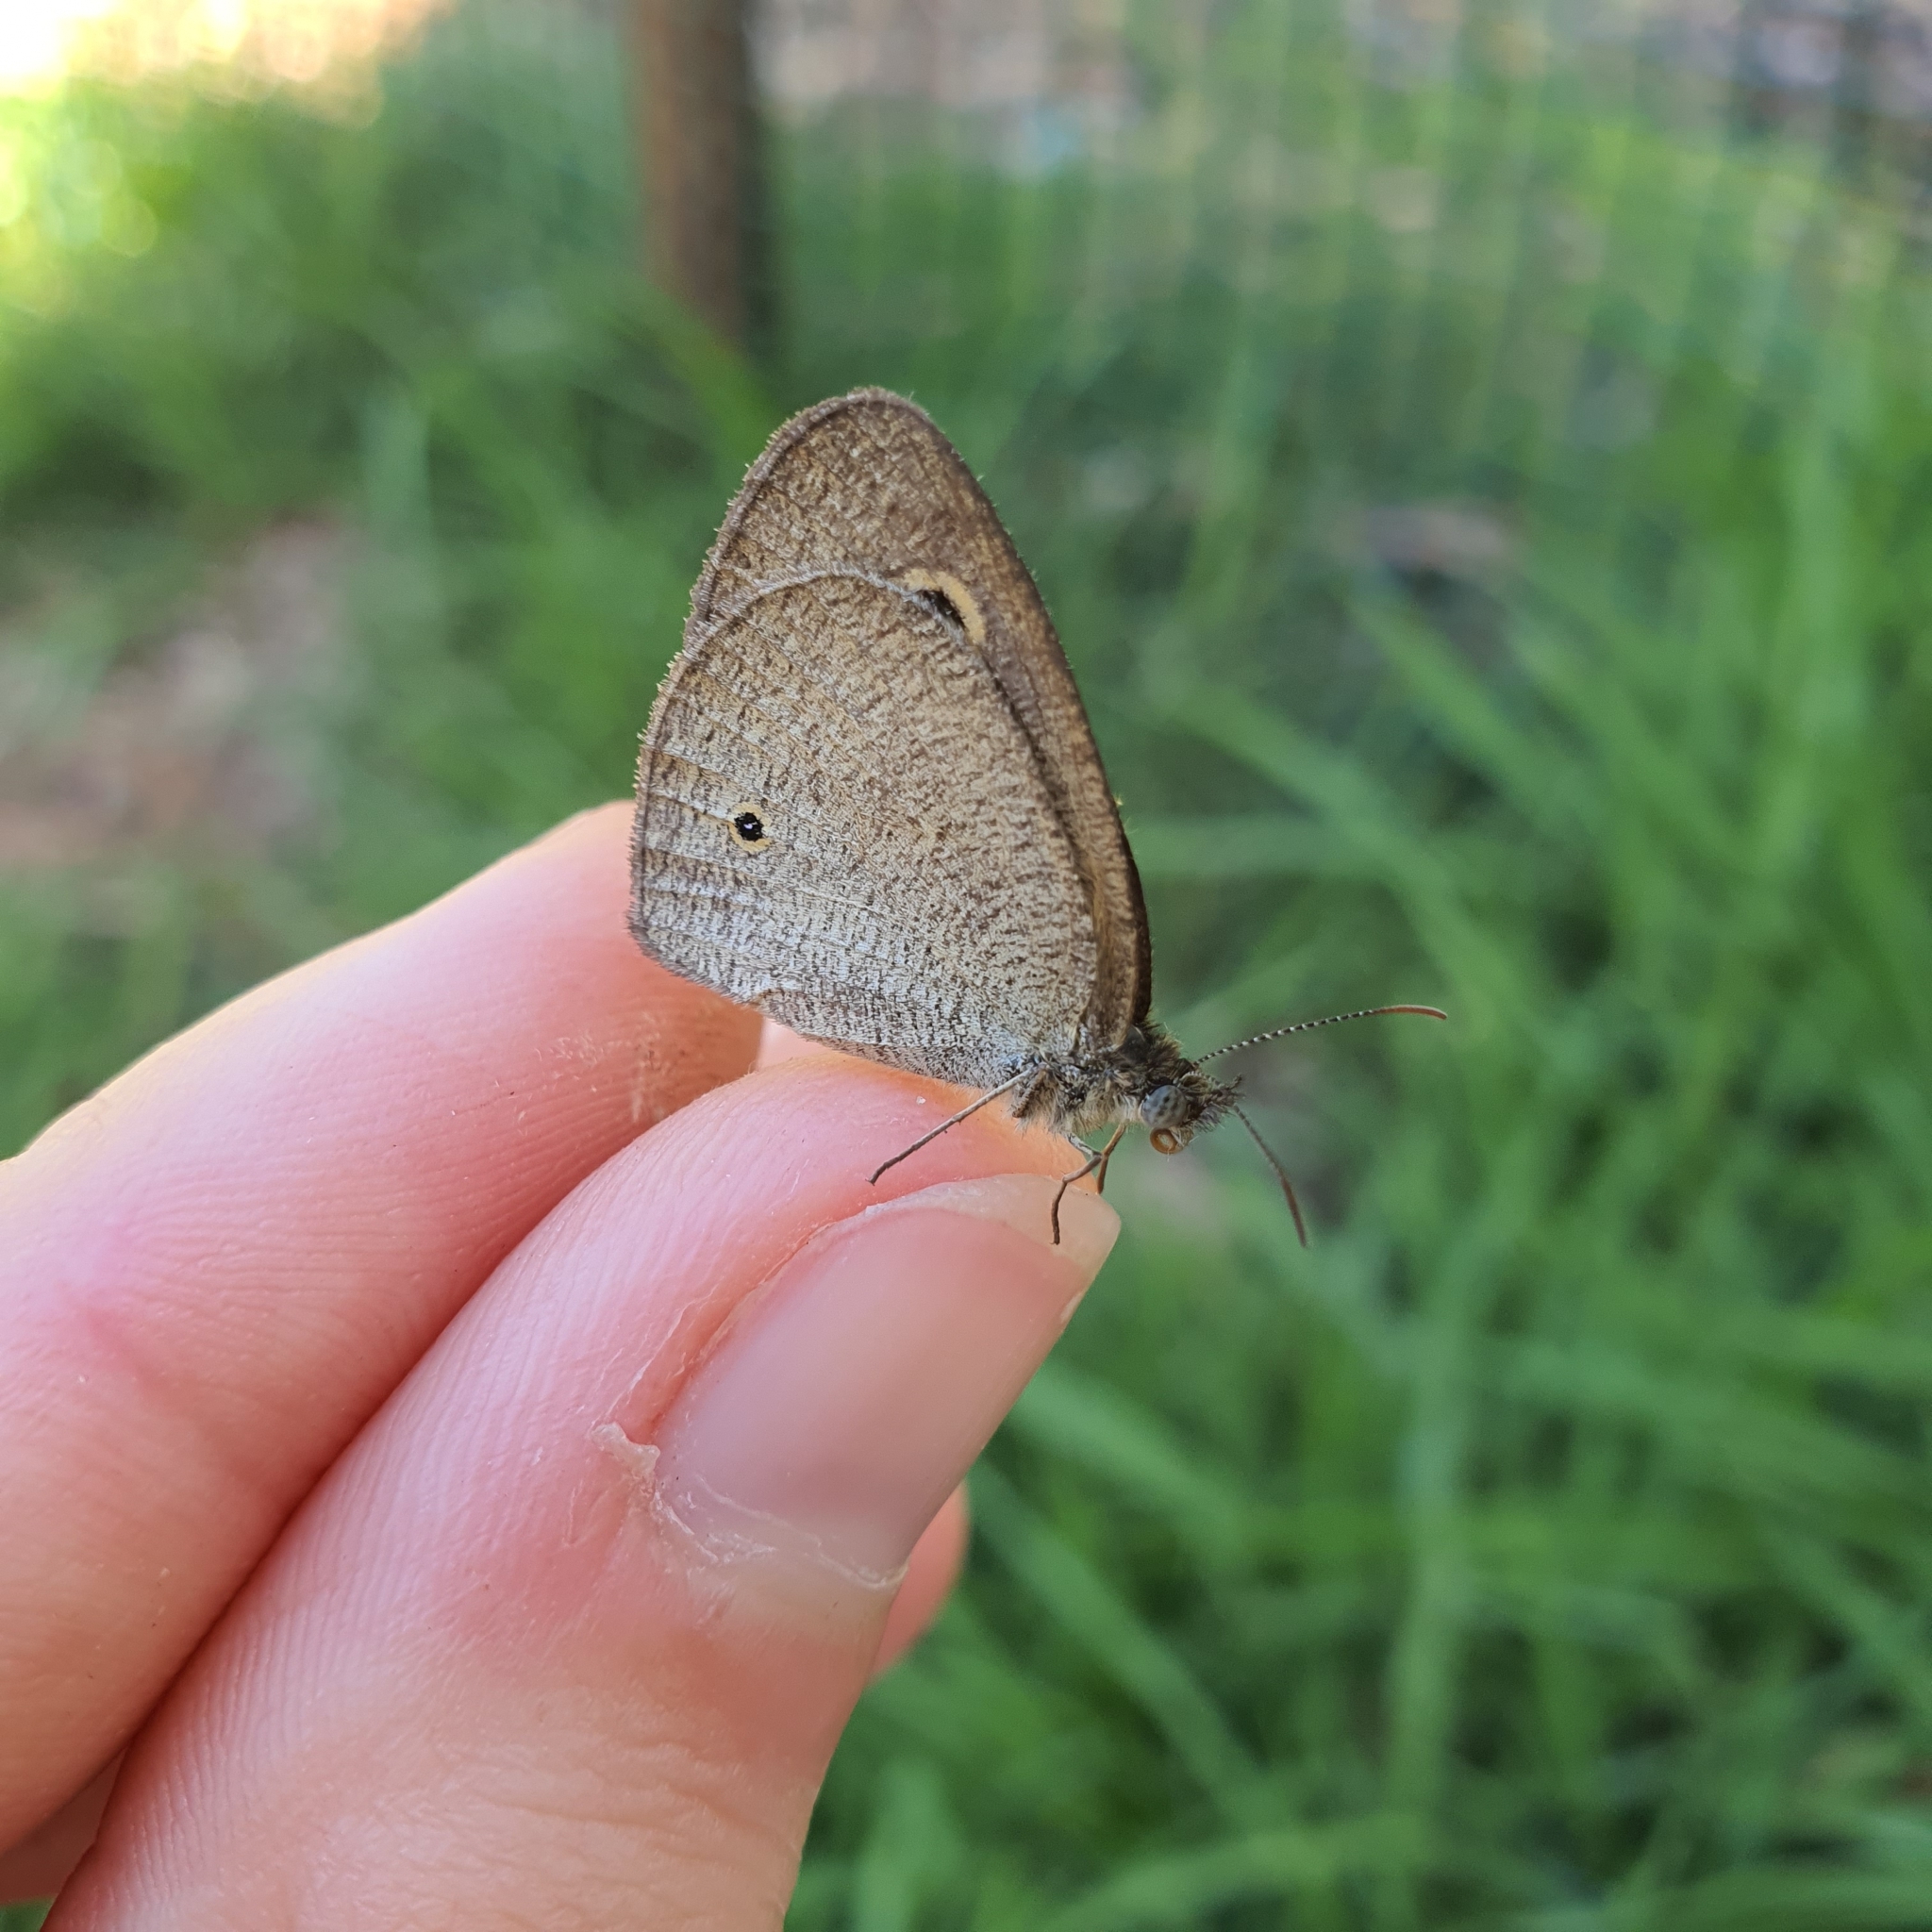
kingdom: Animalia
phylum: Arthropoda
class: Insecta
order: Lepidoptera
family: Nymphalidae
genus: Ypthima
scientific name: Ypthima arctous
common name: Dusky knight
